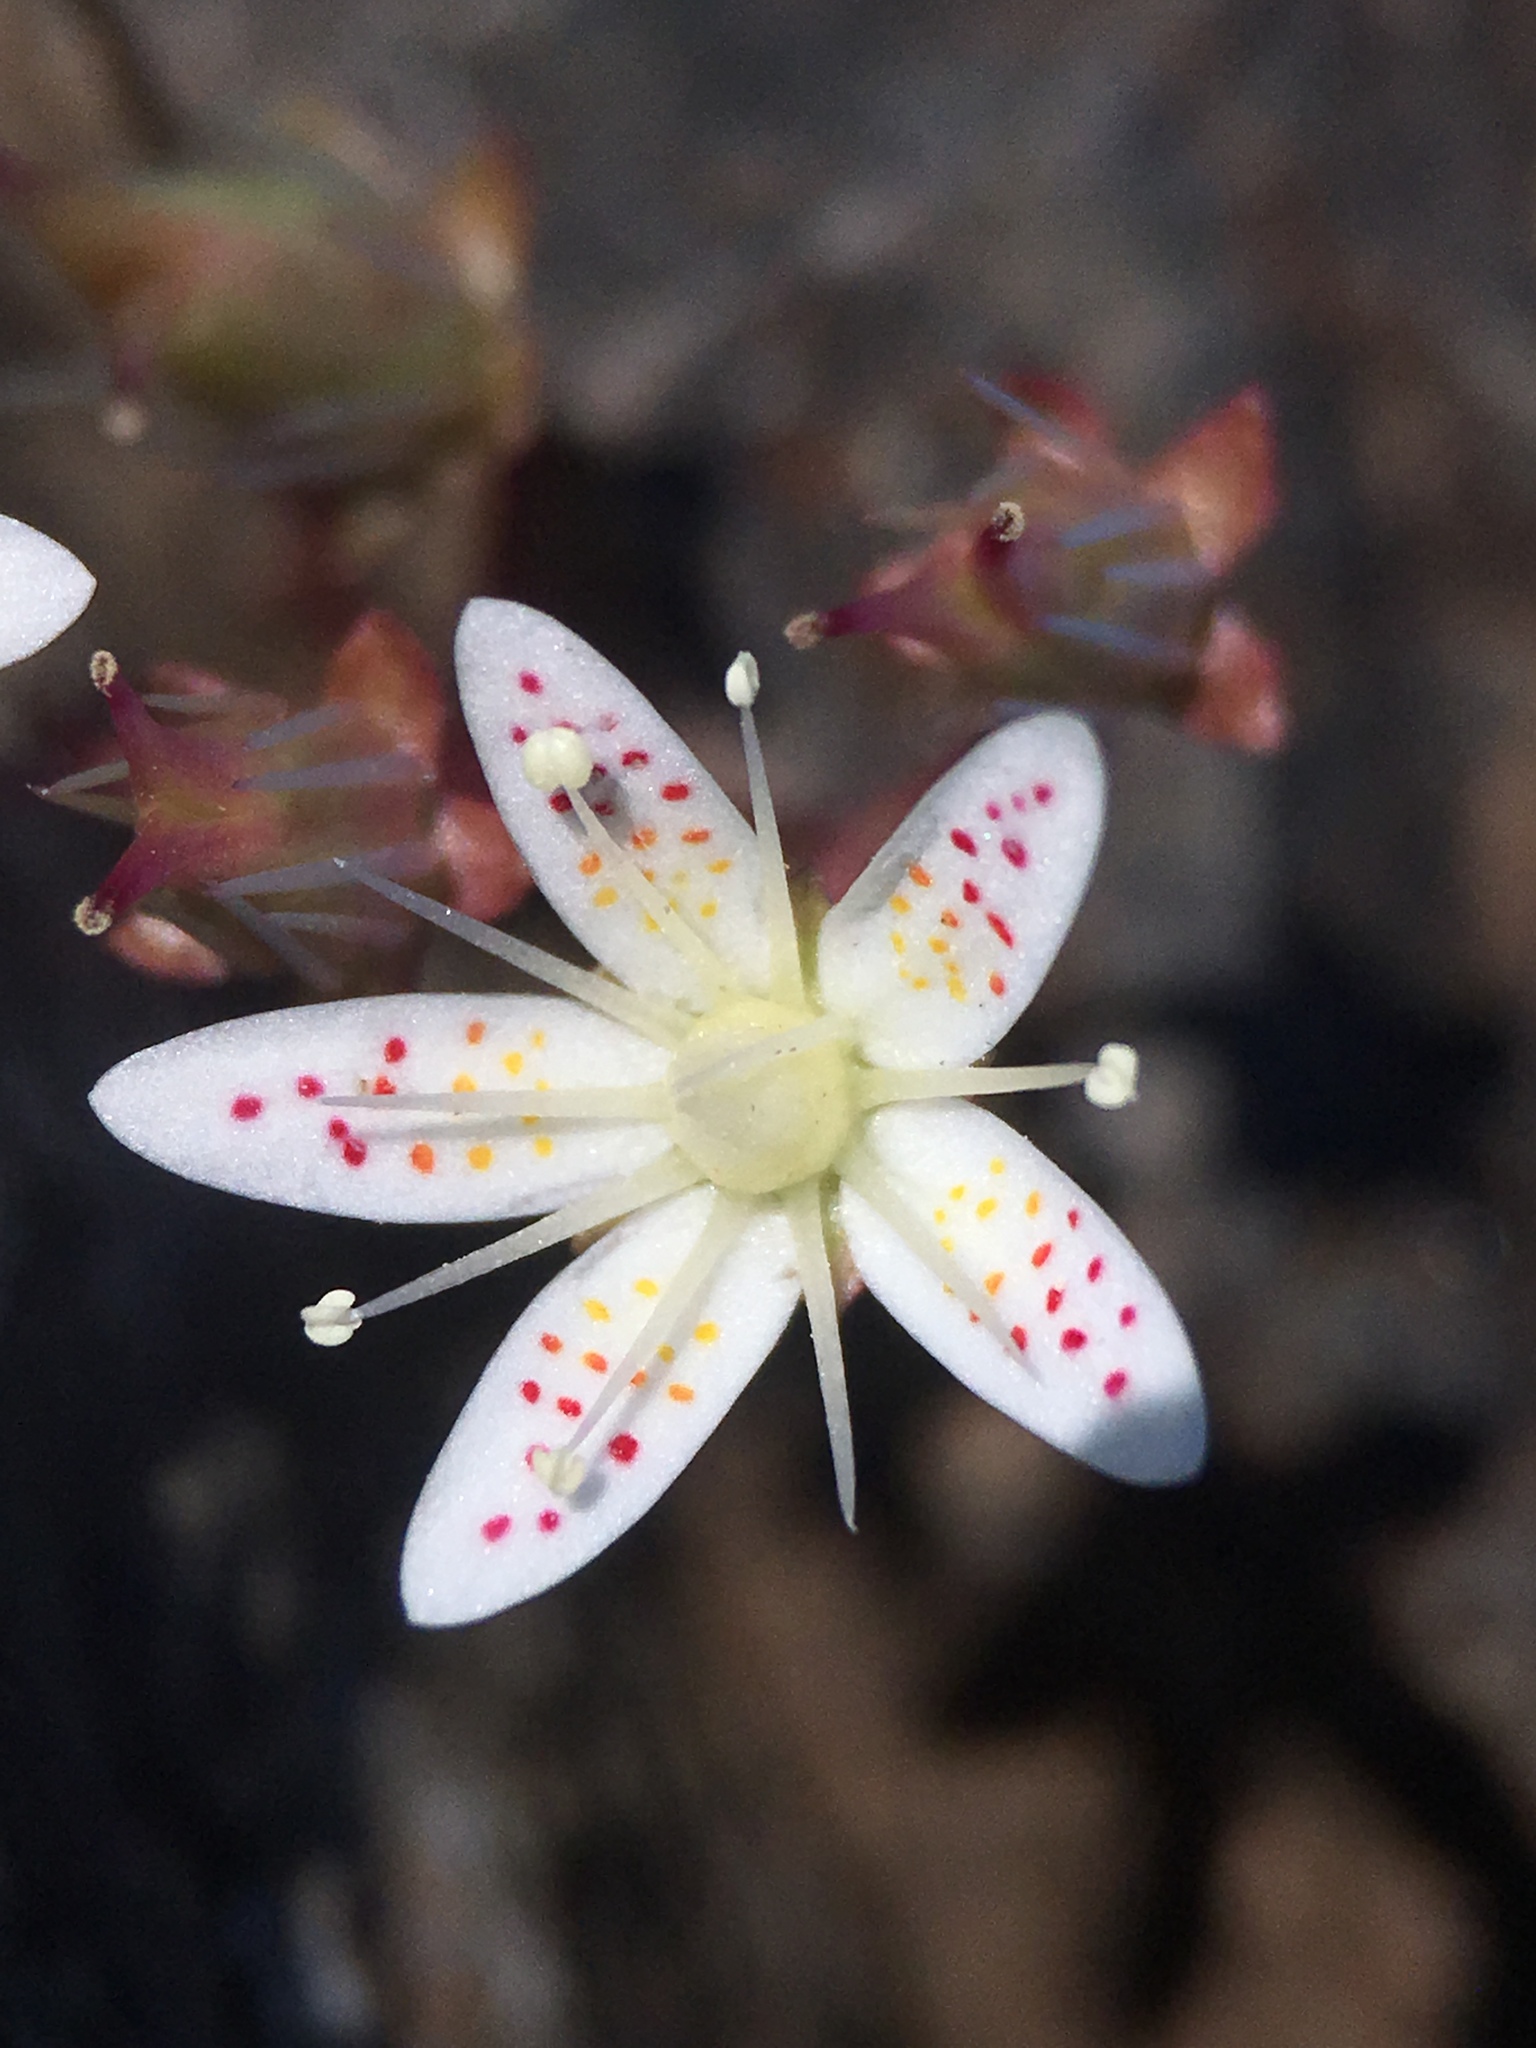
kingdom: Plantae
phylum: Tracheophyta
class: Magnoliopsida
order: Saxifragales
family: Saxifragaceae
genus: Saxifraga
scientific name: Saxifraga bronchialis
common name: Matted saxifrage
